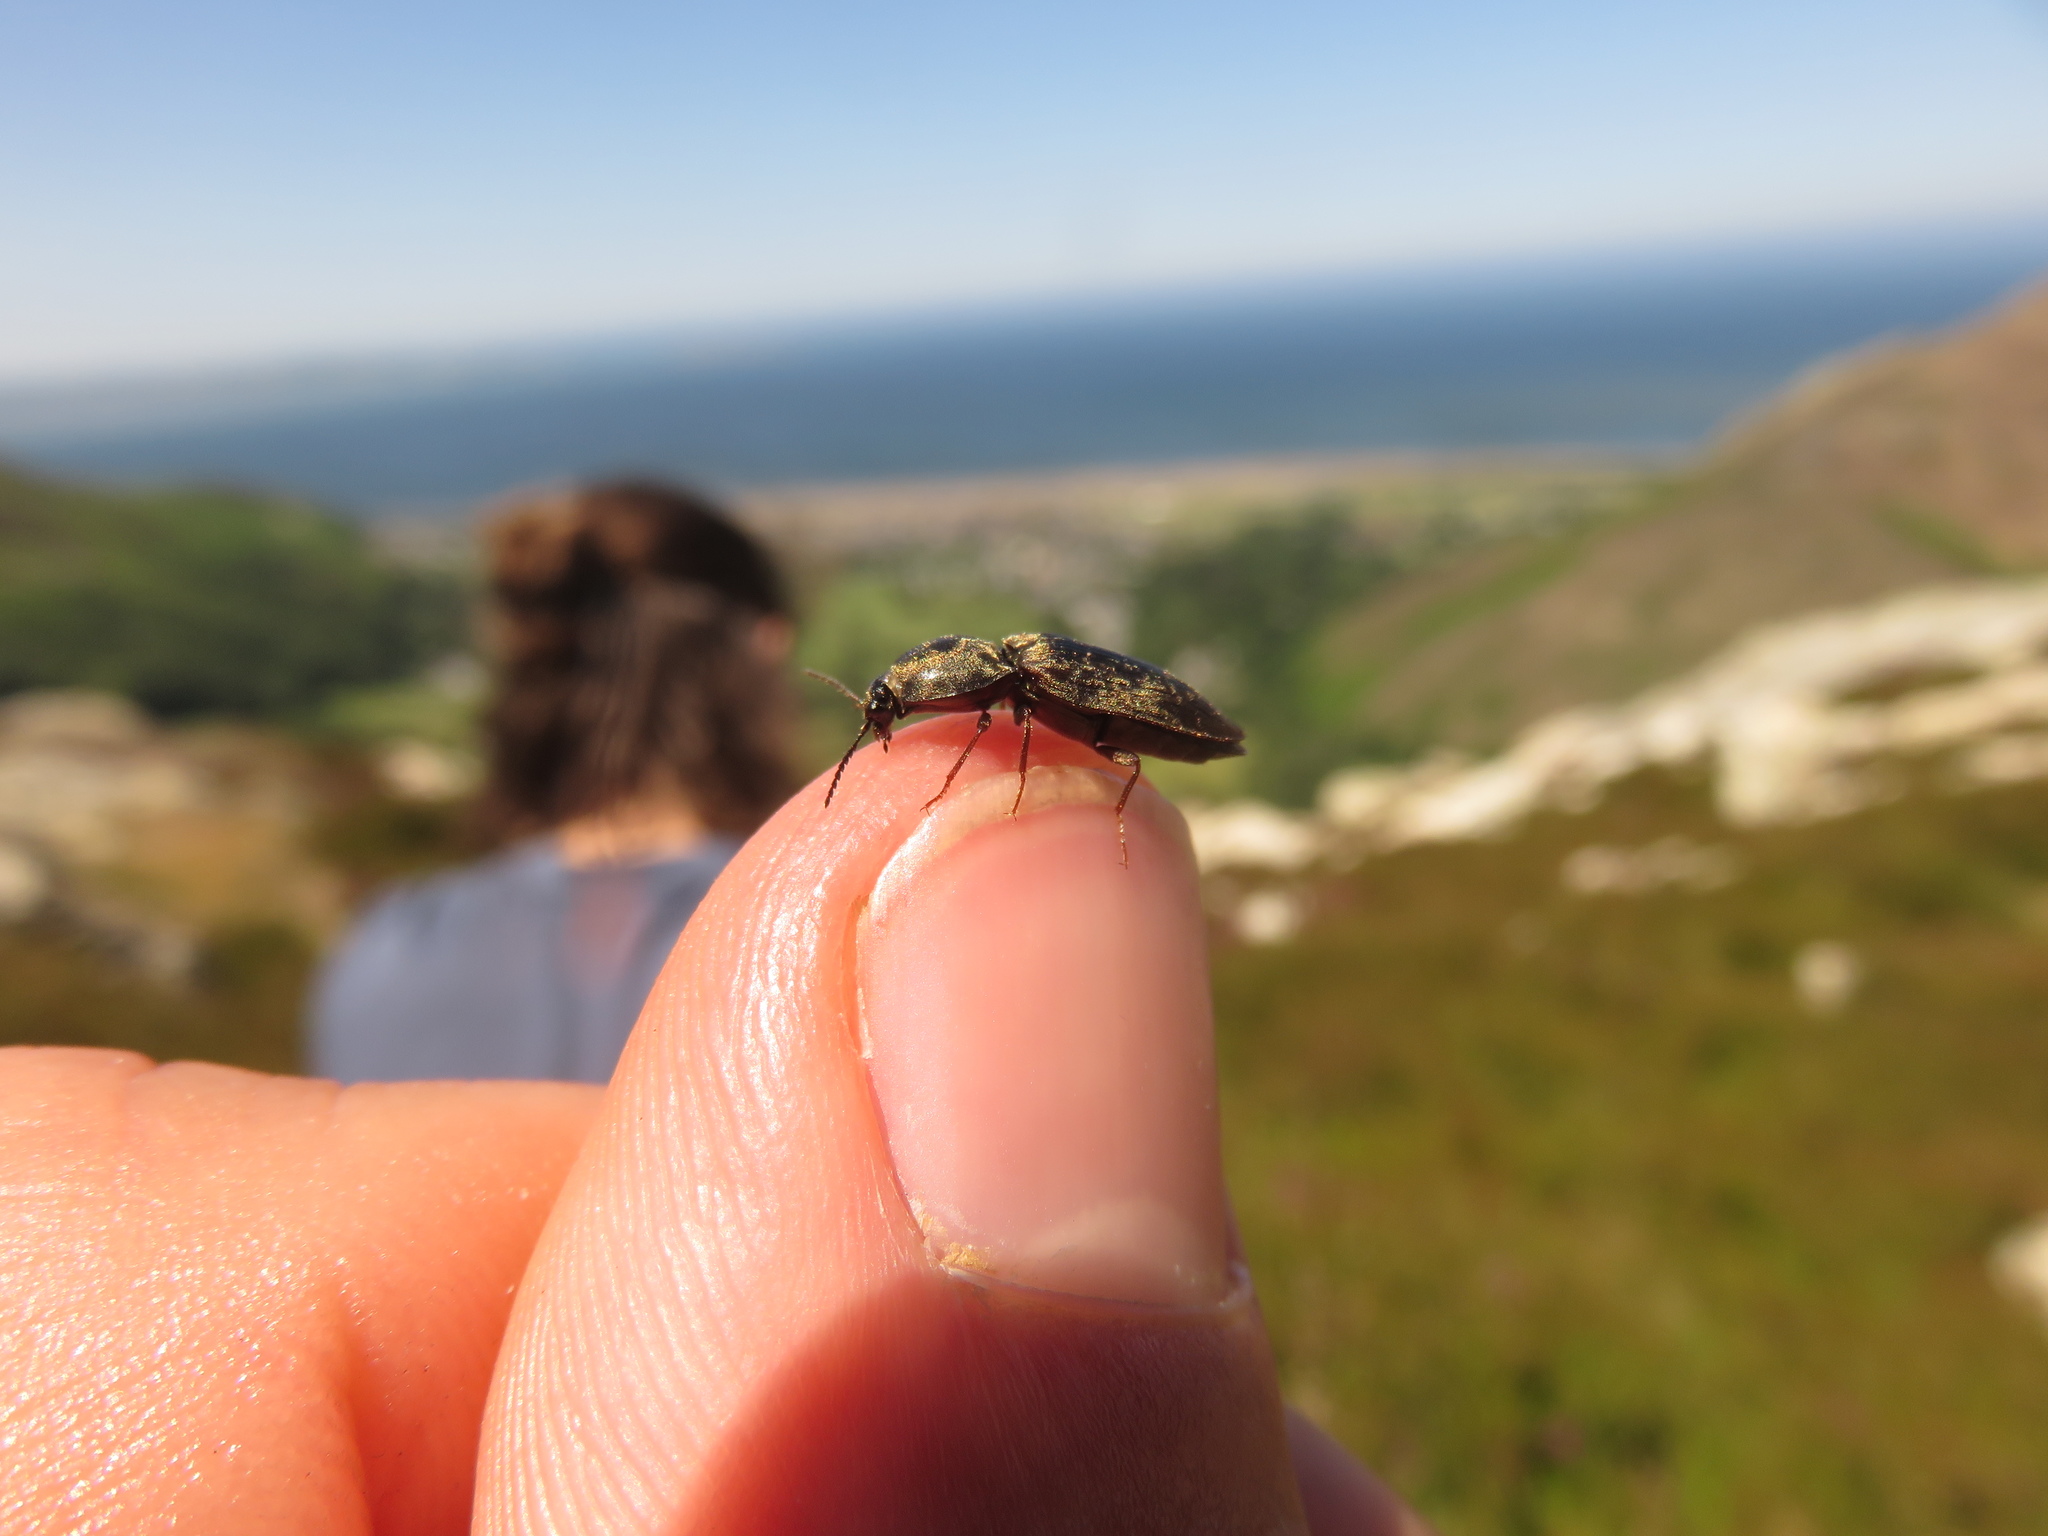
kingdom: Animalia
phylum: Arthropoda
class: Insecta
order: Coleoptera
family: Elateridae
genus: Prosternon
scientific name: Prosternon tessellatum
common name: Chequered click beetle
